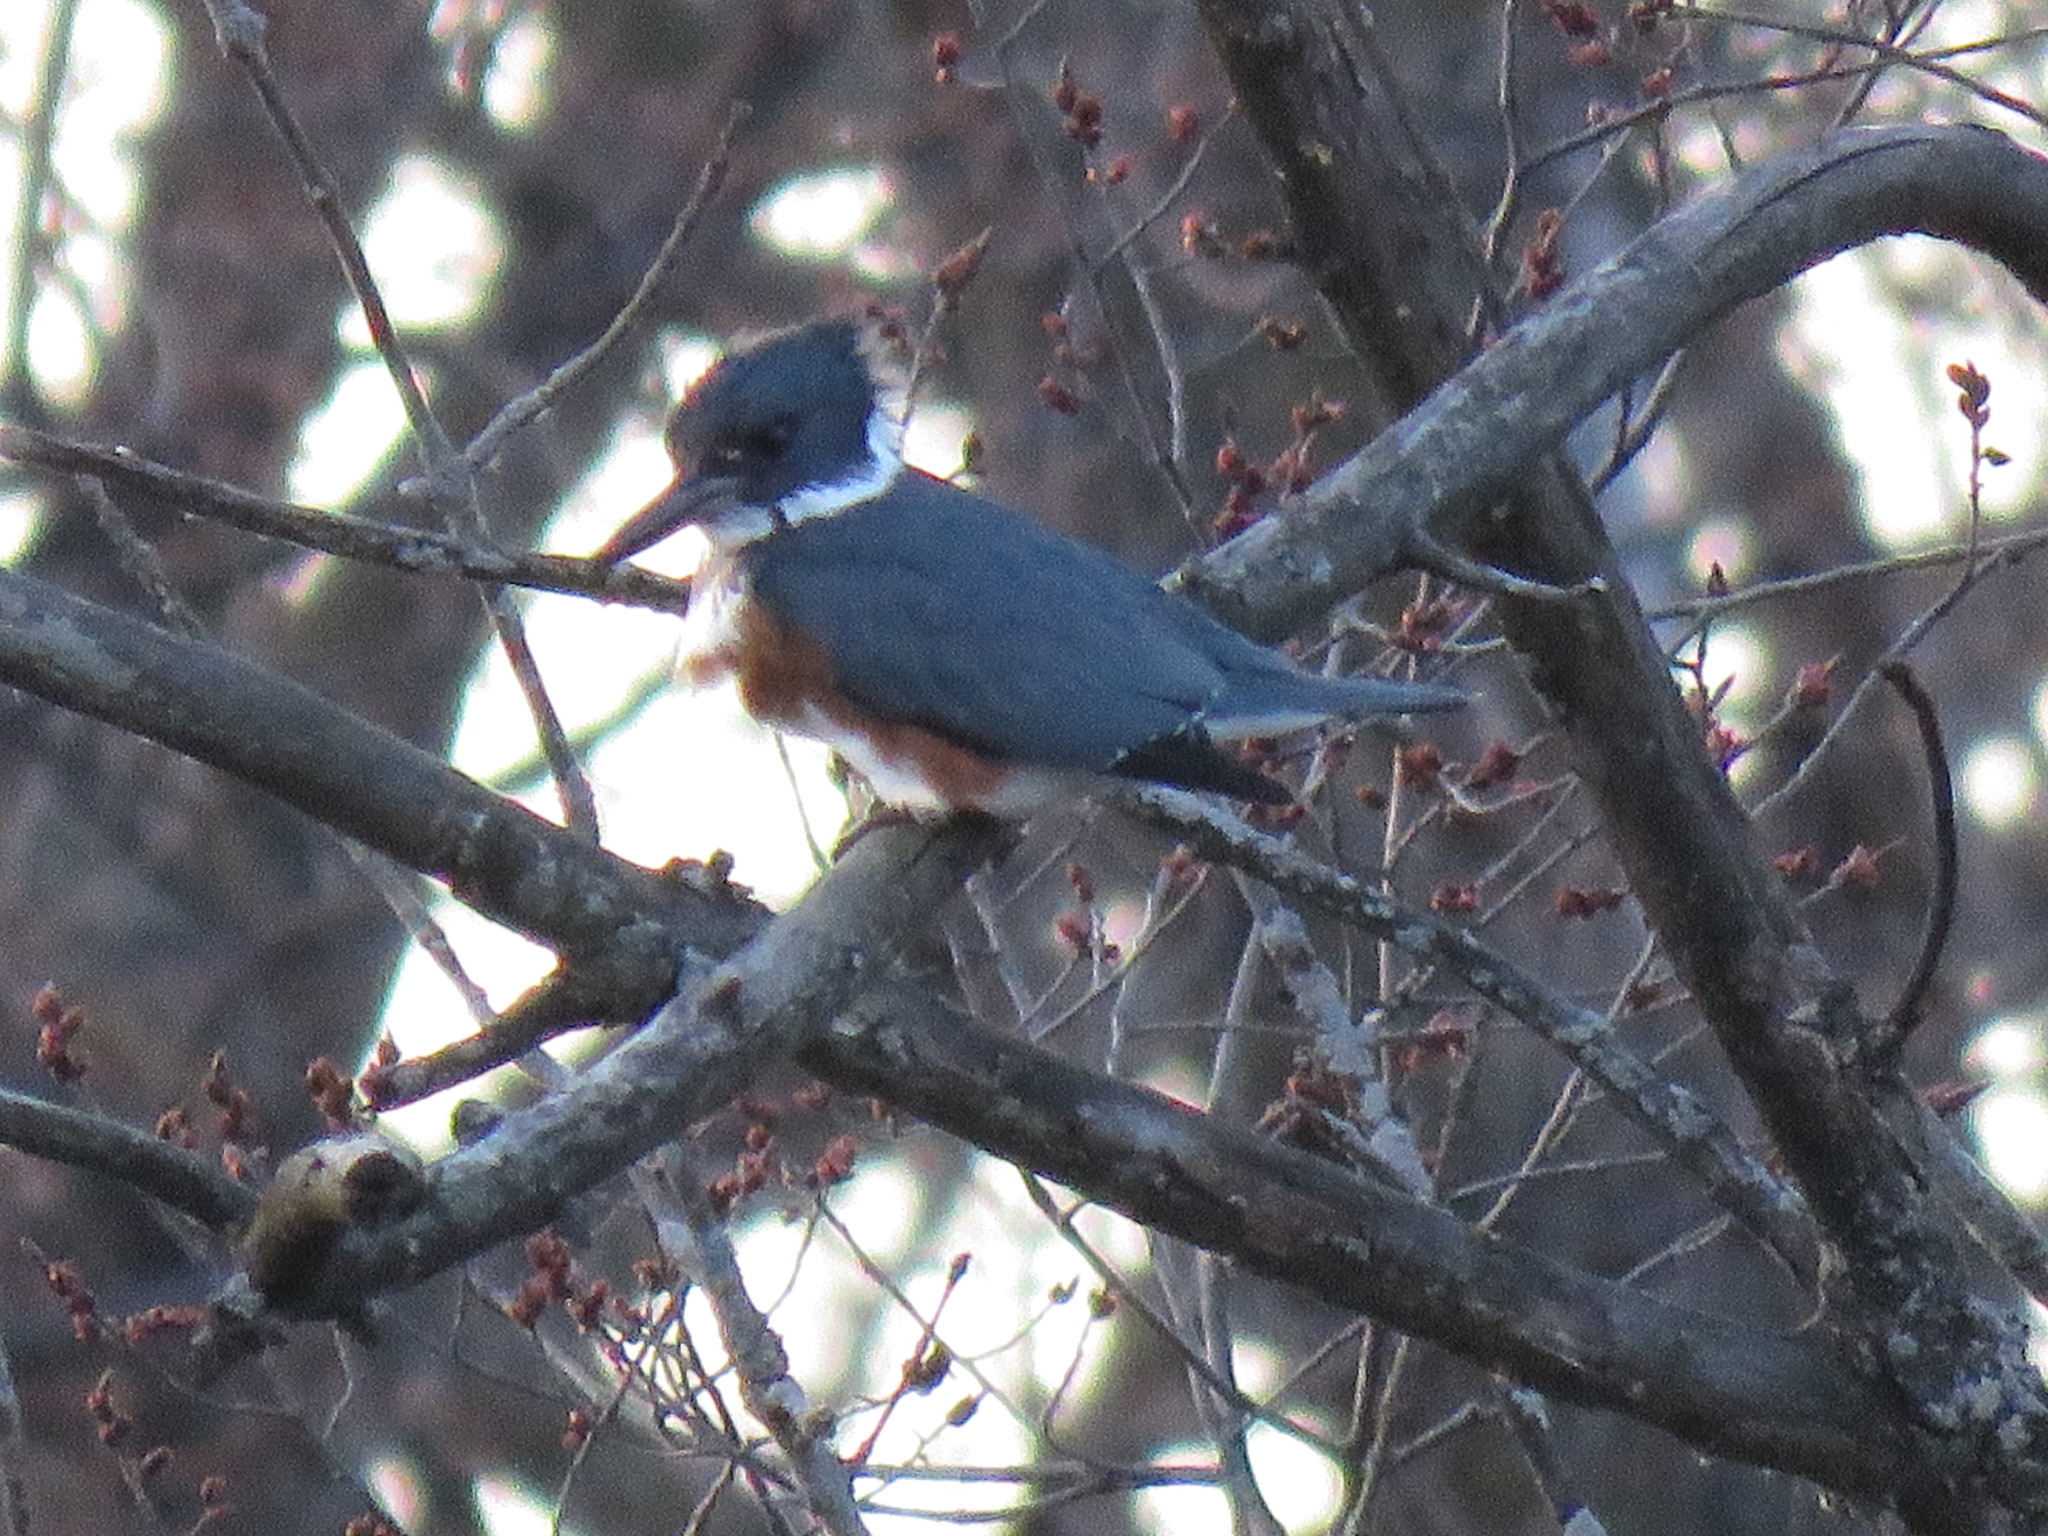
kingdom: Animalia
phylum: Chordata
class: Aves
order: Coraciiformes
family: Alcedinidae
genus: Megaceryle
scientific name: Megaceryle alcyon
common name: Belted kingfisher
